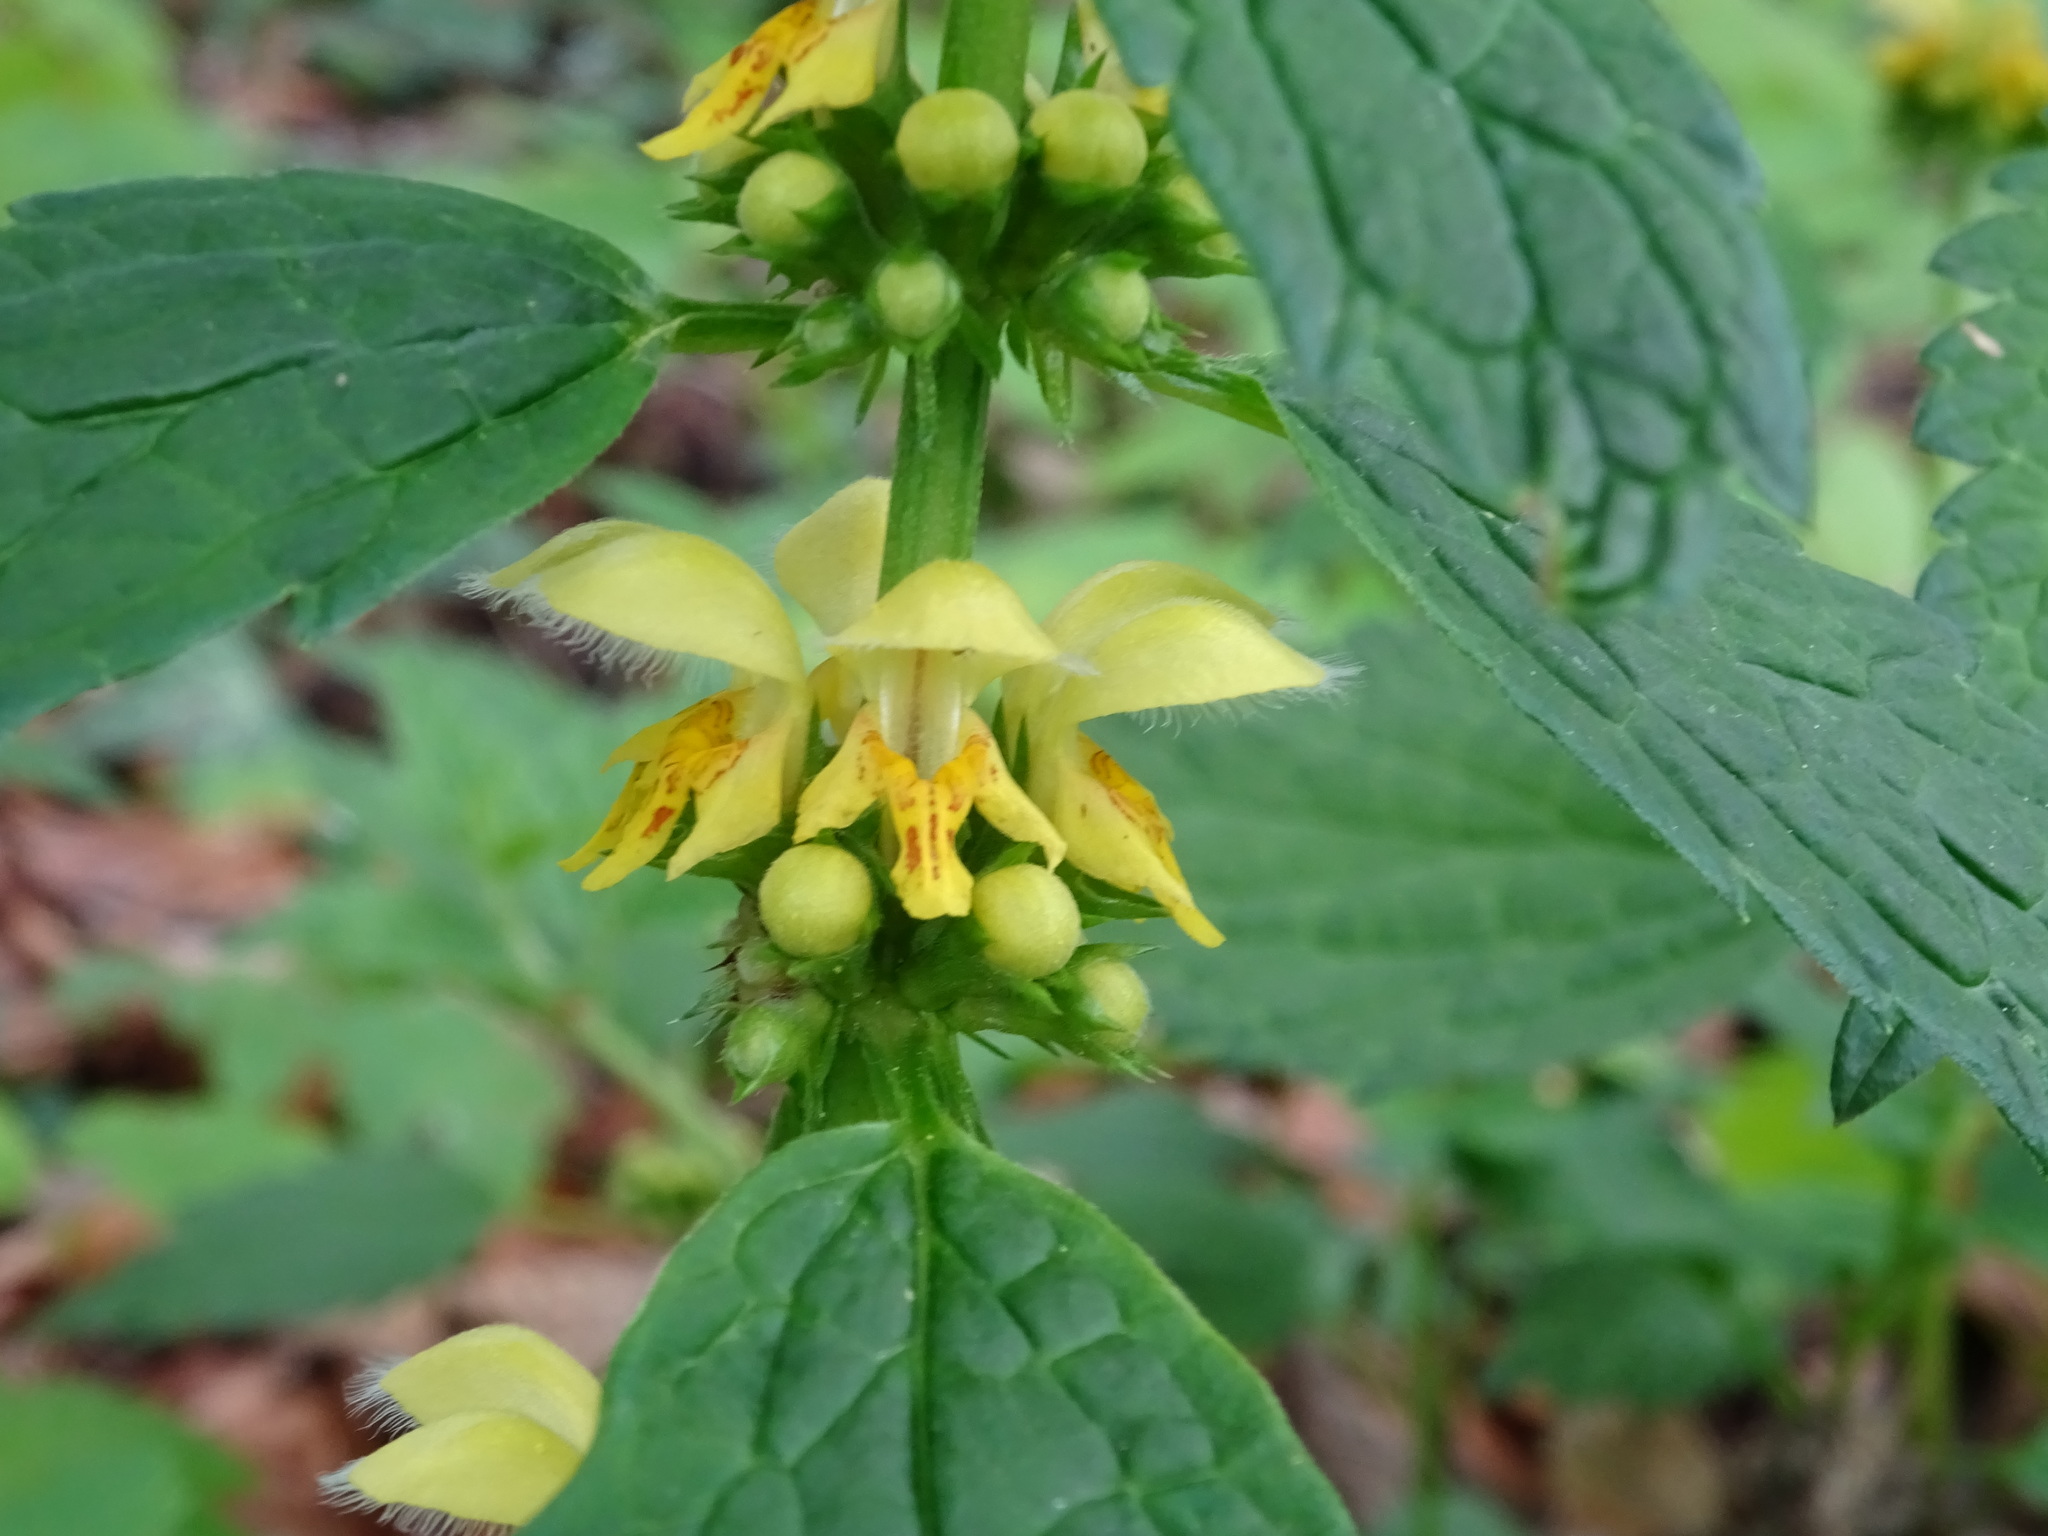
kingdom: Plantae
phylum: Tracheophyta
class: Magnoliopsida
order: Lamiales
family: Lamiaceae
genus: Lamium
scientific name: Lamium galeobdolon
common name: Yellow archangel
